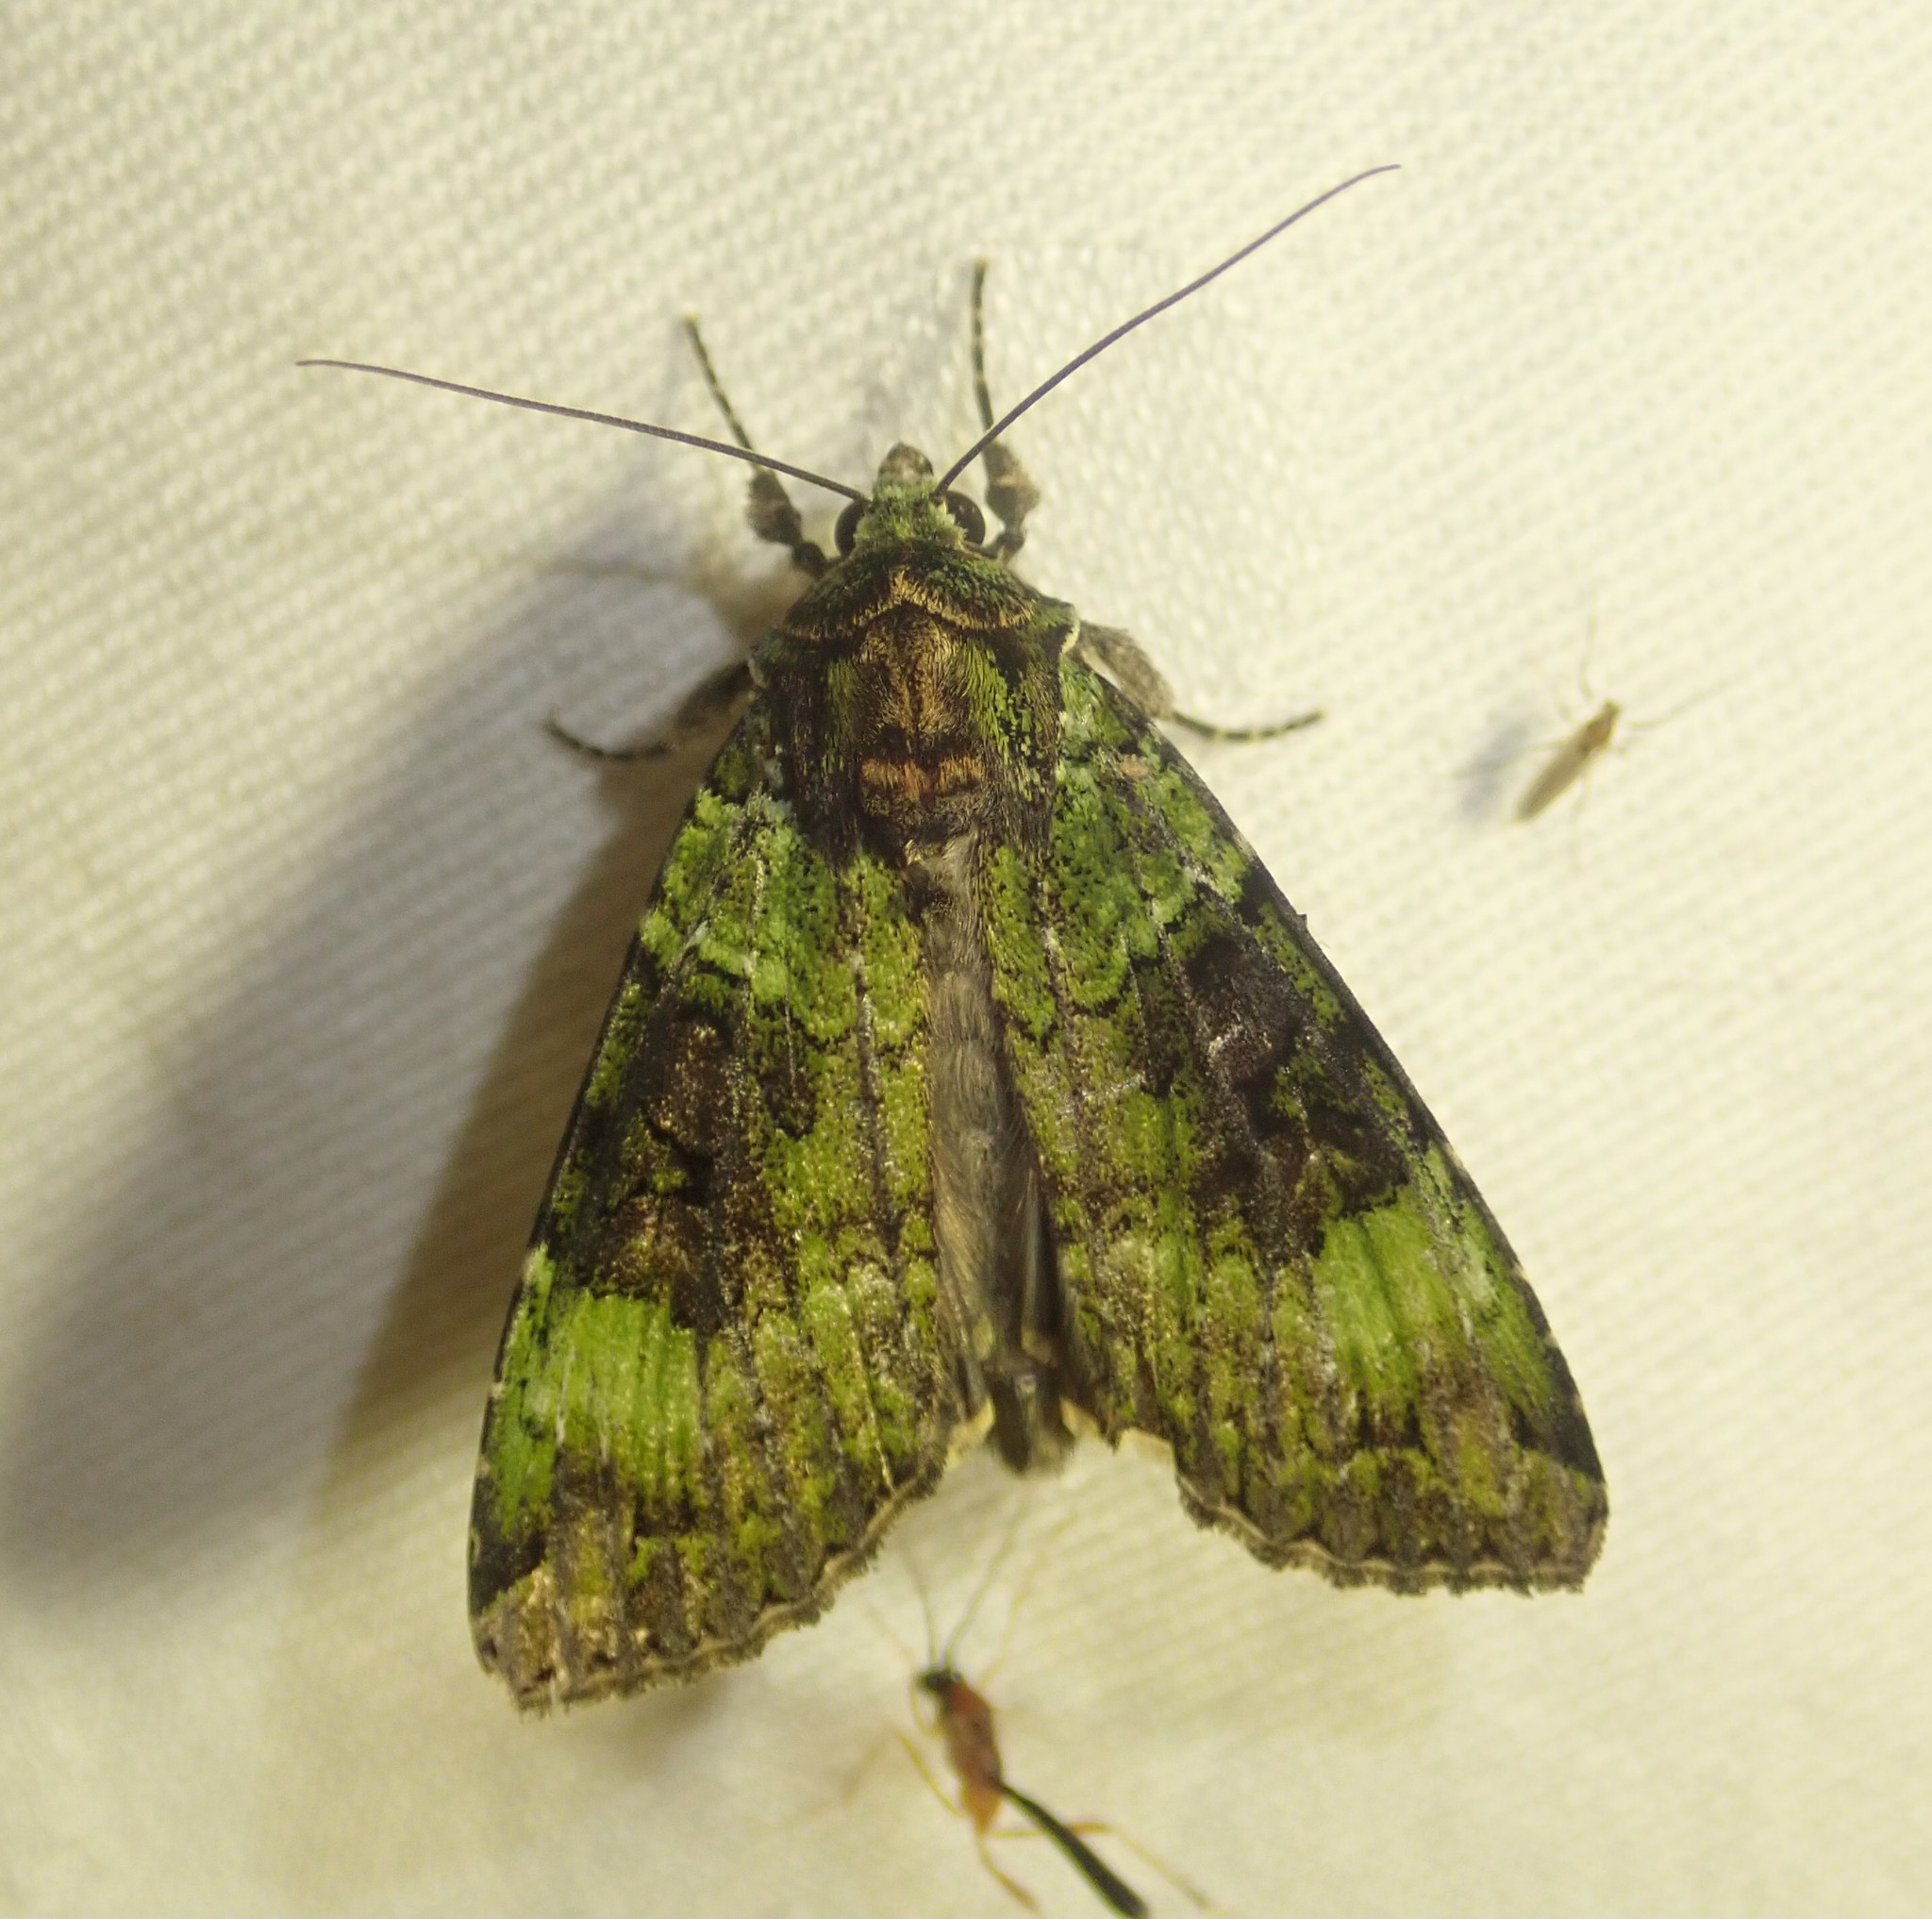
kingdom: Animalia
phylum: Arthropoda
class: Insecta
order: Lepidoptera
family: Noctuidae
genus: Anaplectoides
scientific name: Anaplectoides prasina
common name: Green arches
